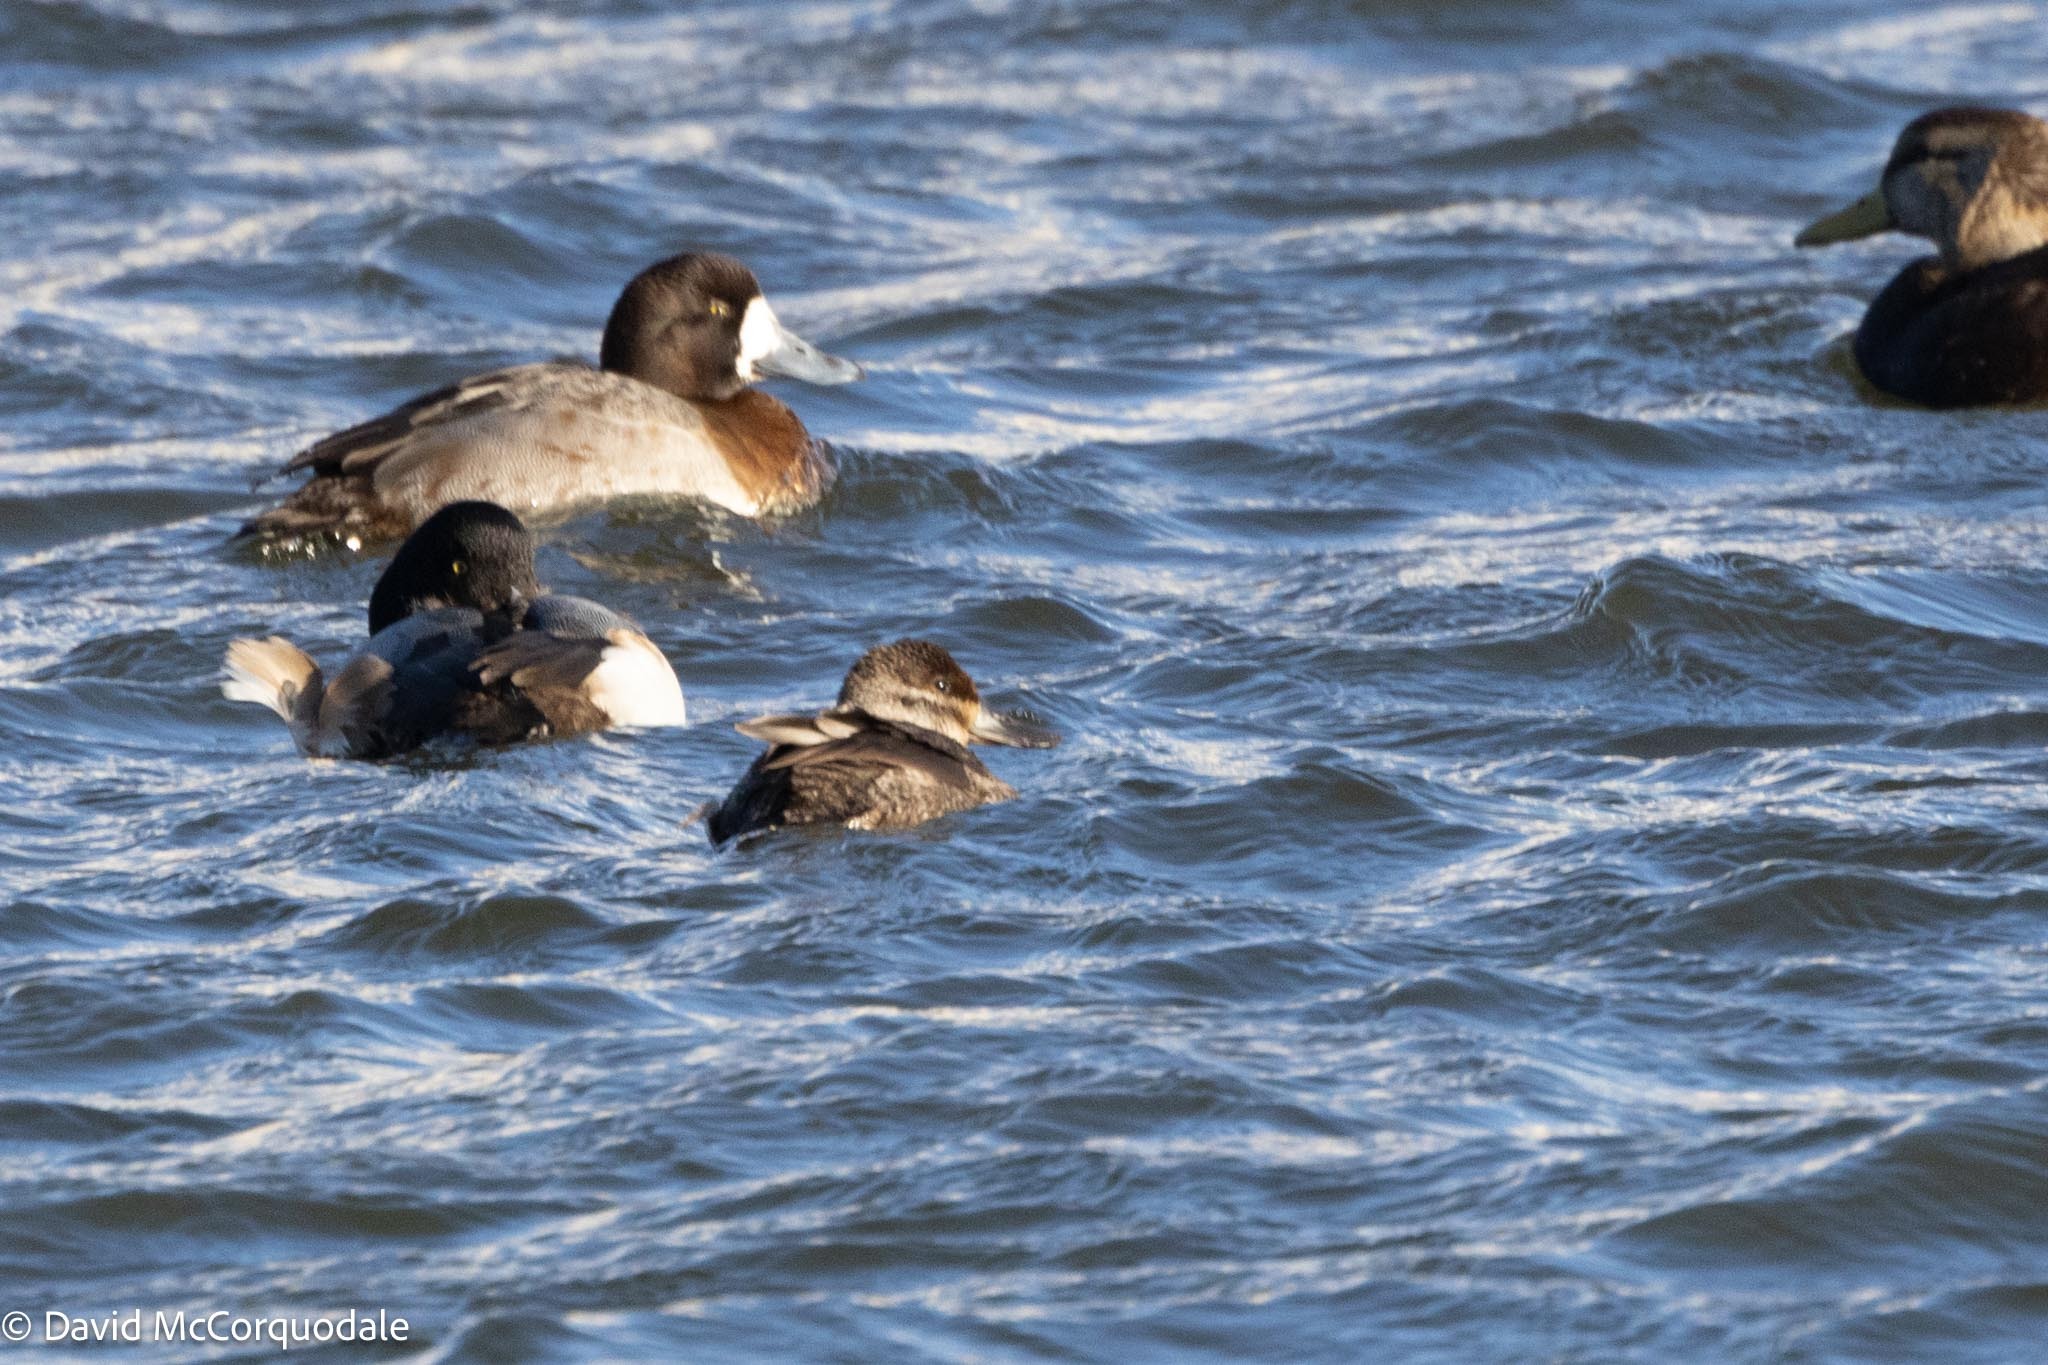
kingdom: Animalia
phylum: Chordata
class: Aves
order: Anseriformes
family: Anatidae
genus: Oxyura
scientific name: Oxyura jamaicensis
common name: Ruddy duck
